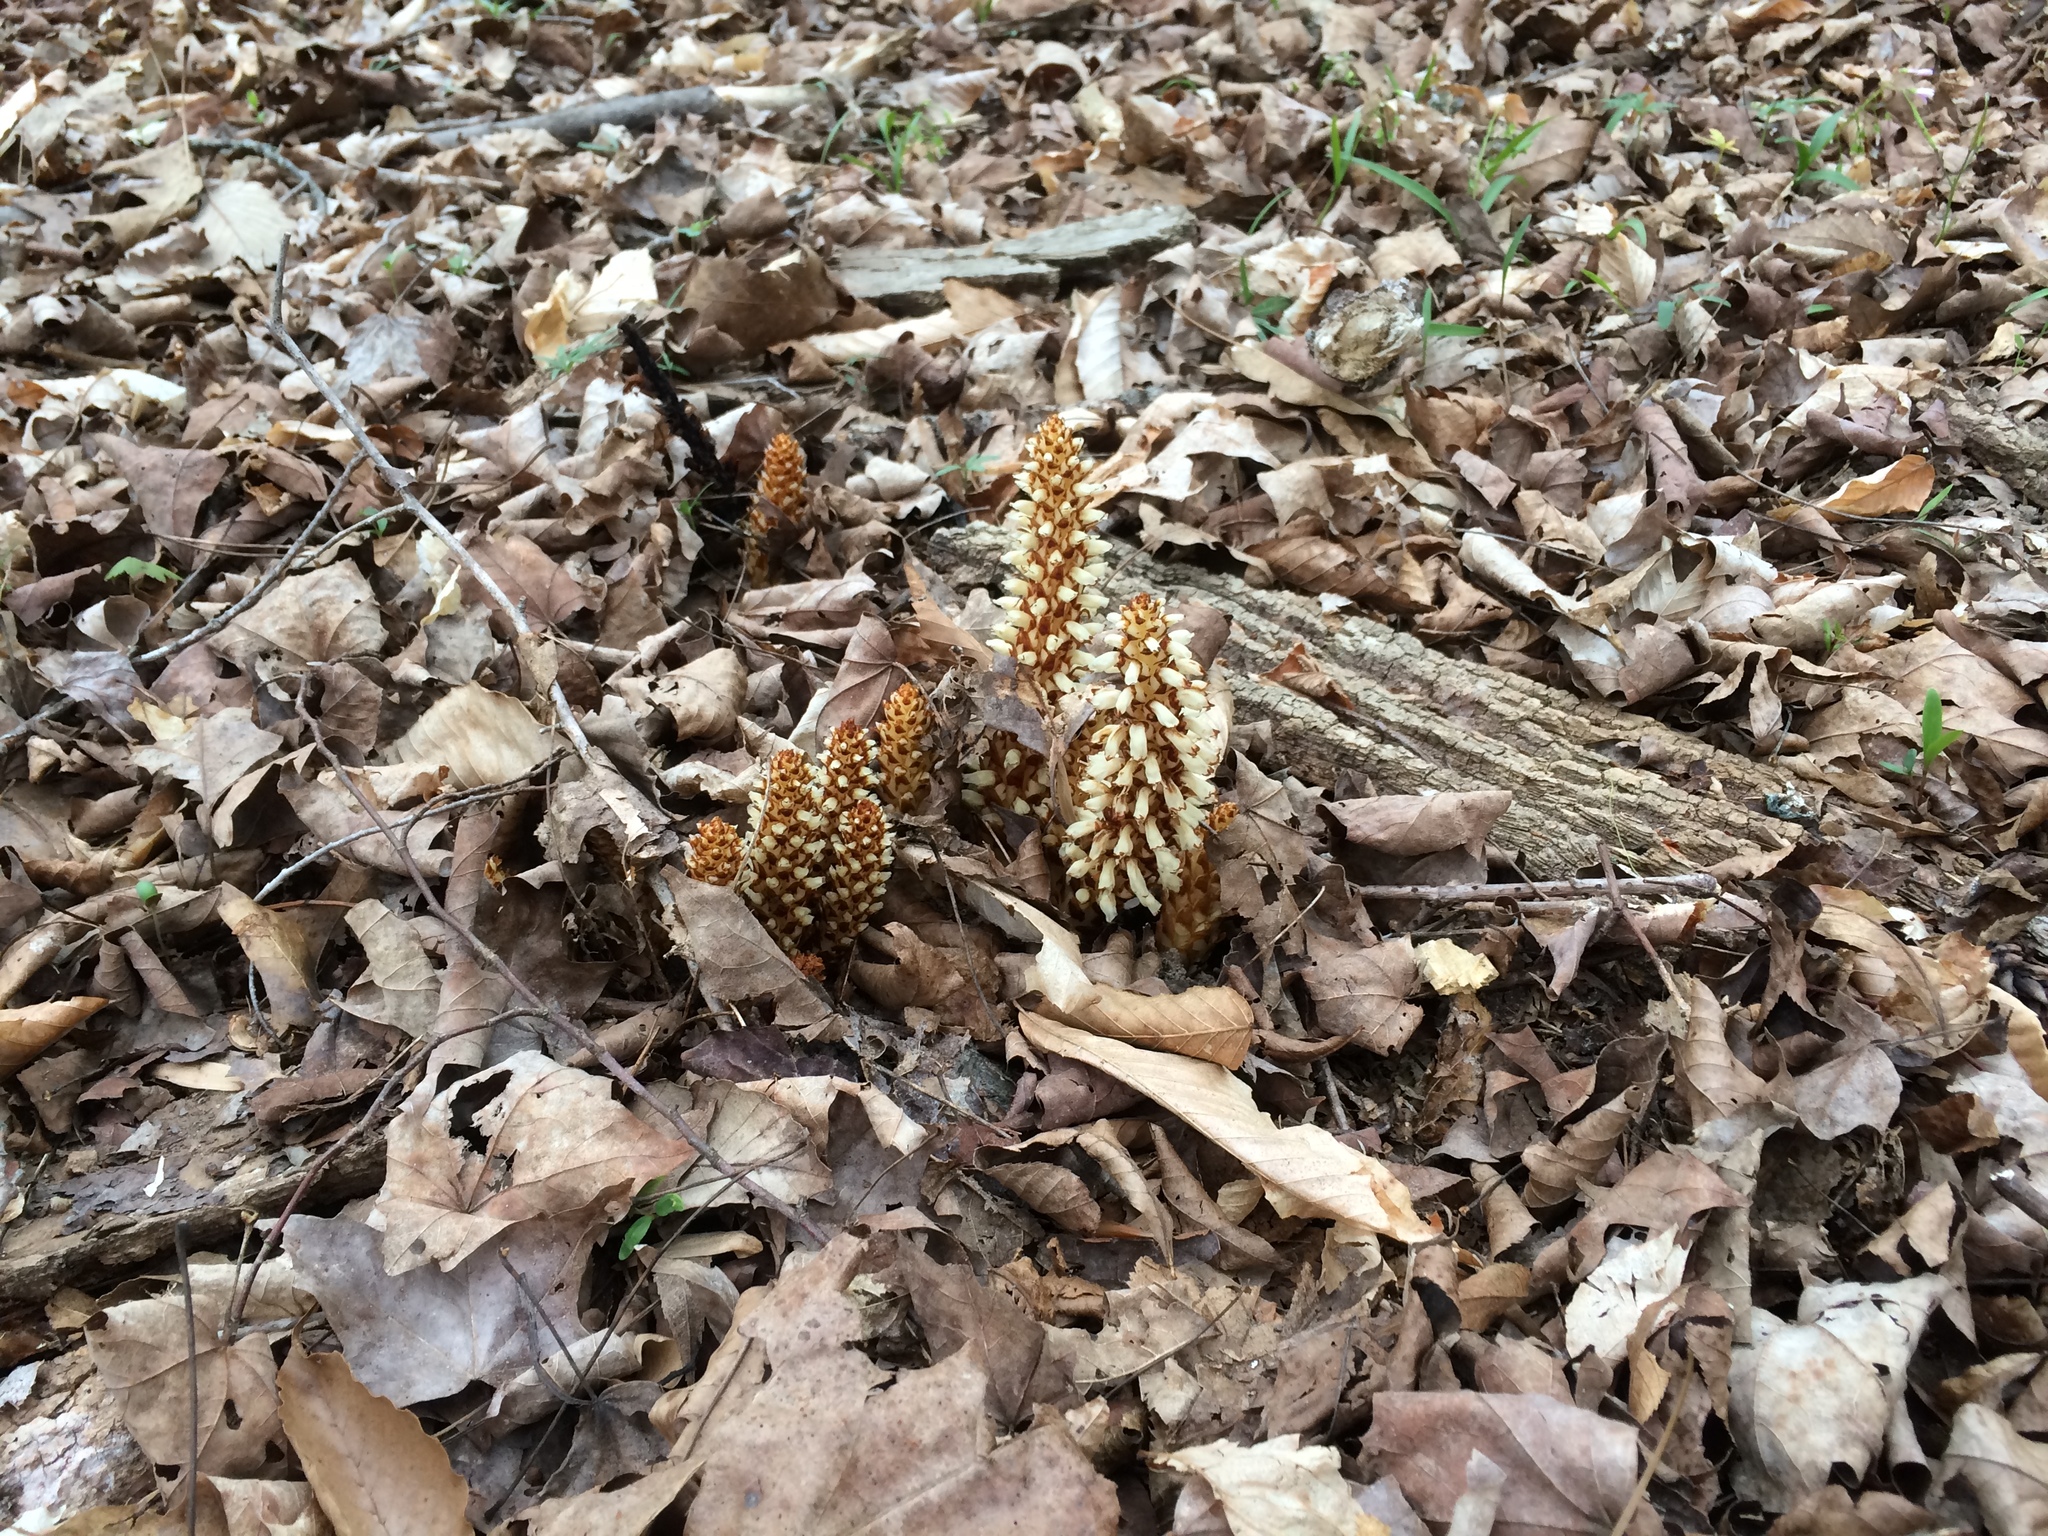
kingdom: Plantae
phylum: Tracheophyta
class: Magnoliopsida
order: Lamiales
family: Orobanchaceae
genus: Conopholis
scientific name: Conopholis americana
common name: American cancer-root
